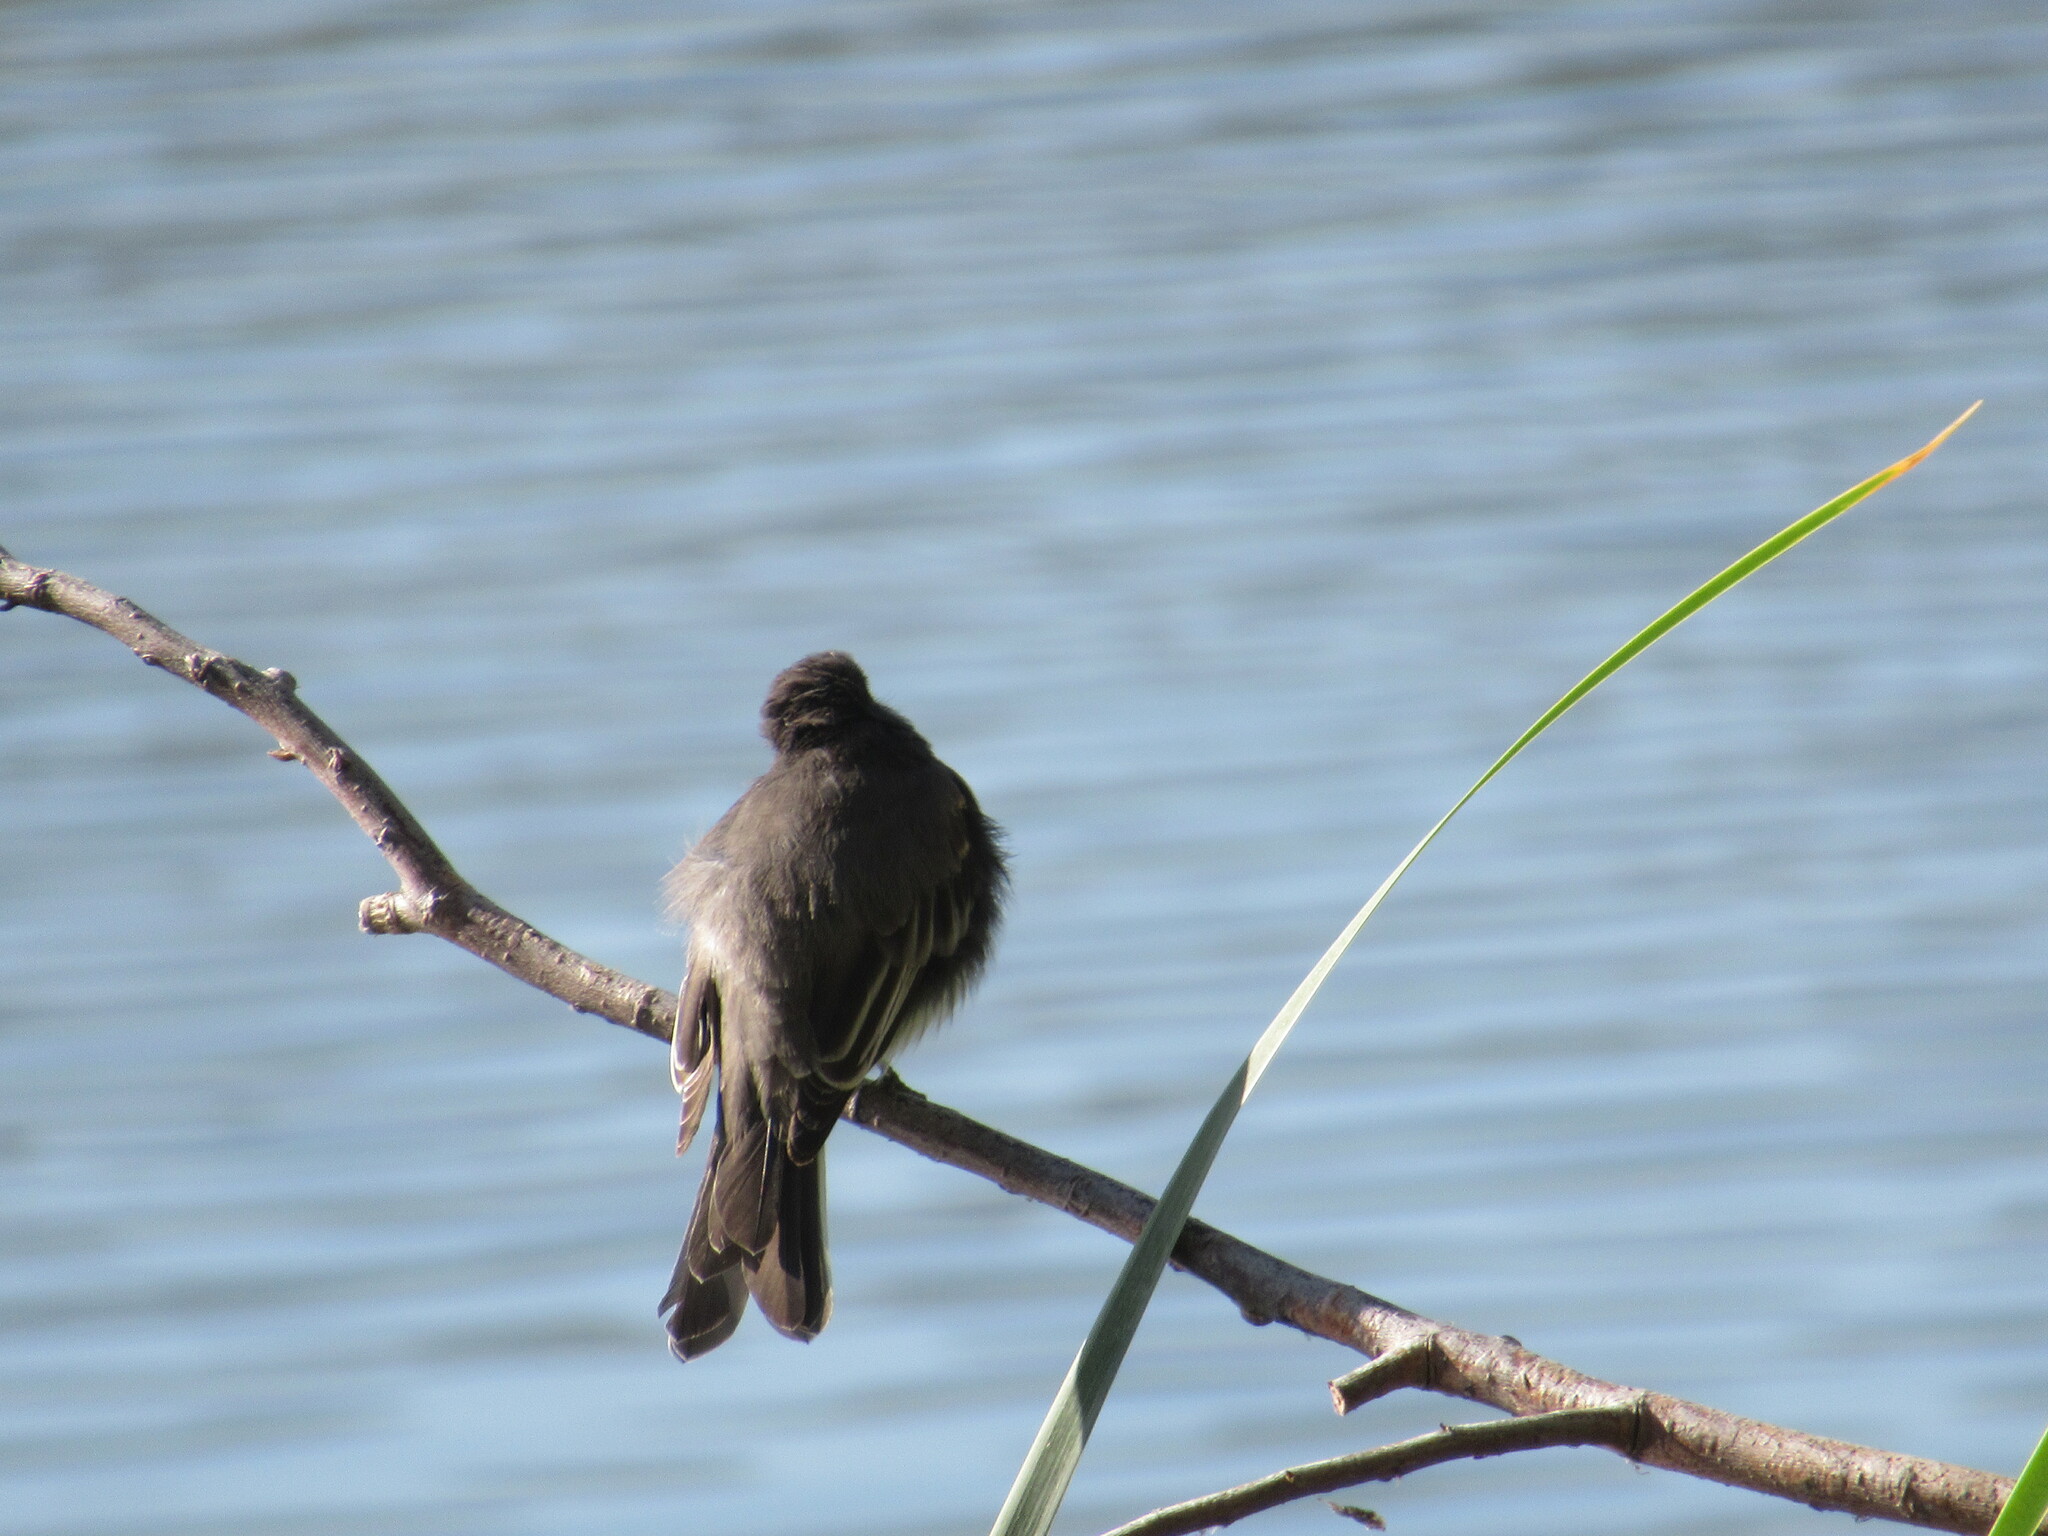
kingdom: Animalia
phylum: Chordata
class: Aves
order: Passeriformes
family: Tyrannidae
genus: Sayornis
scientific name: Sayornis nigricans
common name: Black phoebe
